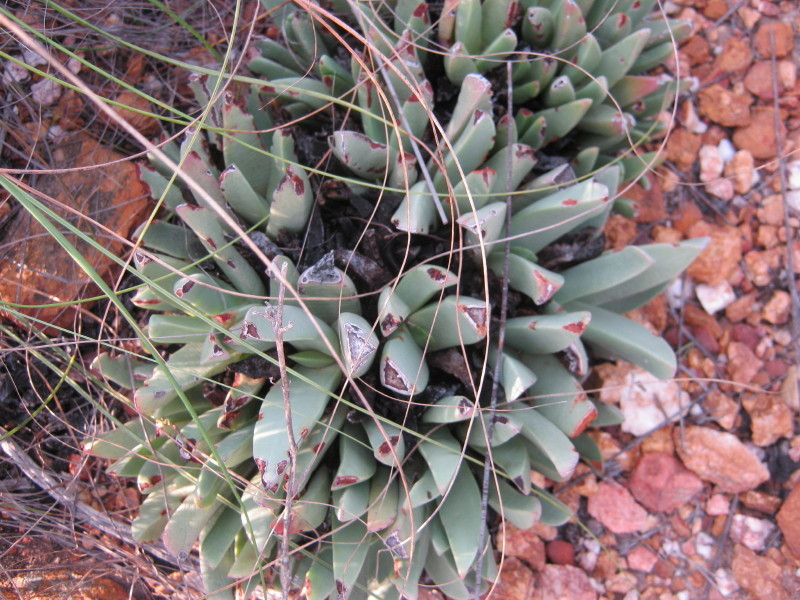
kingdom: Plantae
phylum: Tracheophyta
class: Magnoliopsida
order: Caryophyllales
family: Aizoaceae
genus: Machairophyllum
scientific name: Machairophyllum albidum
